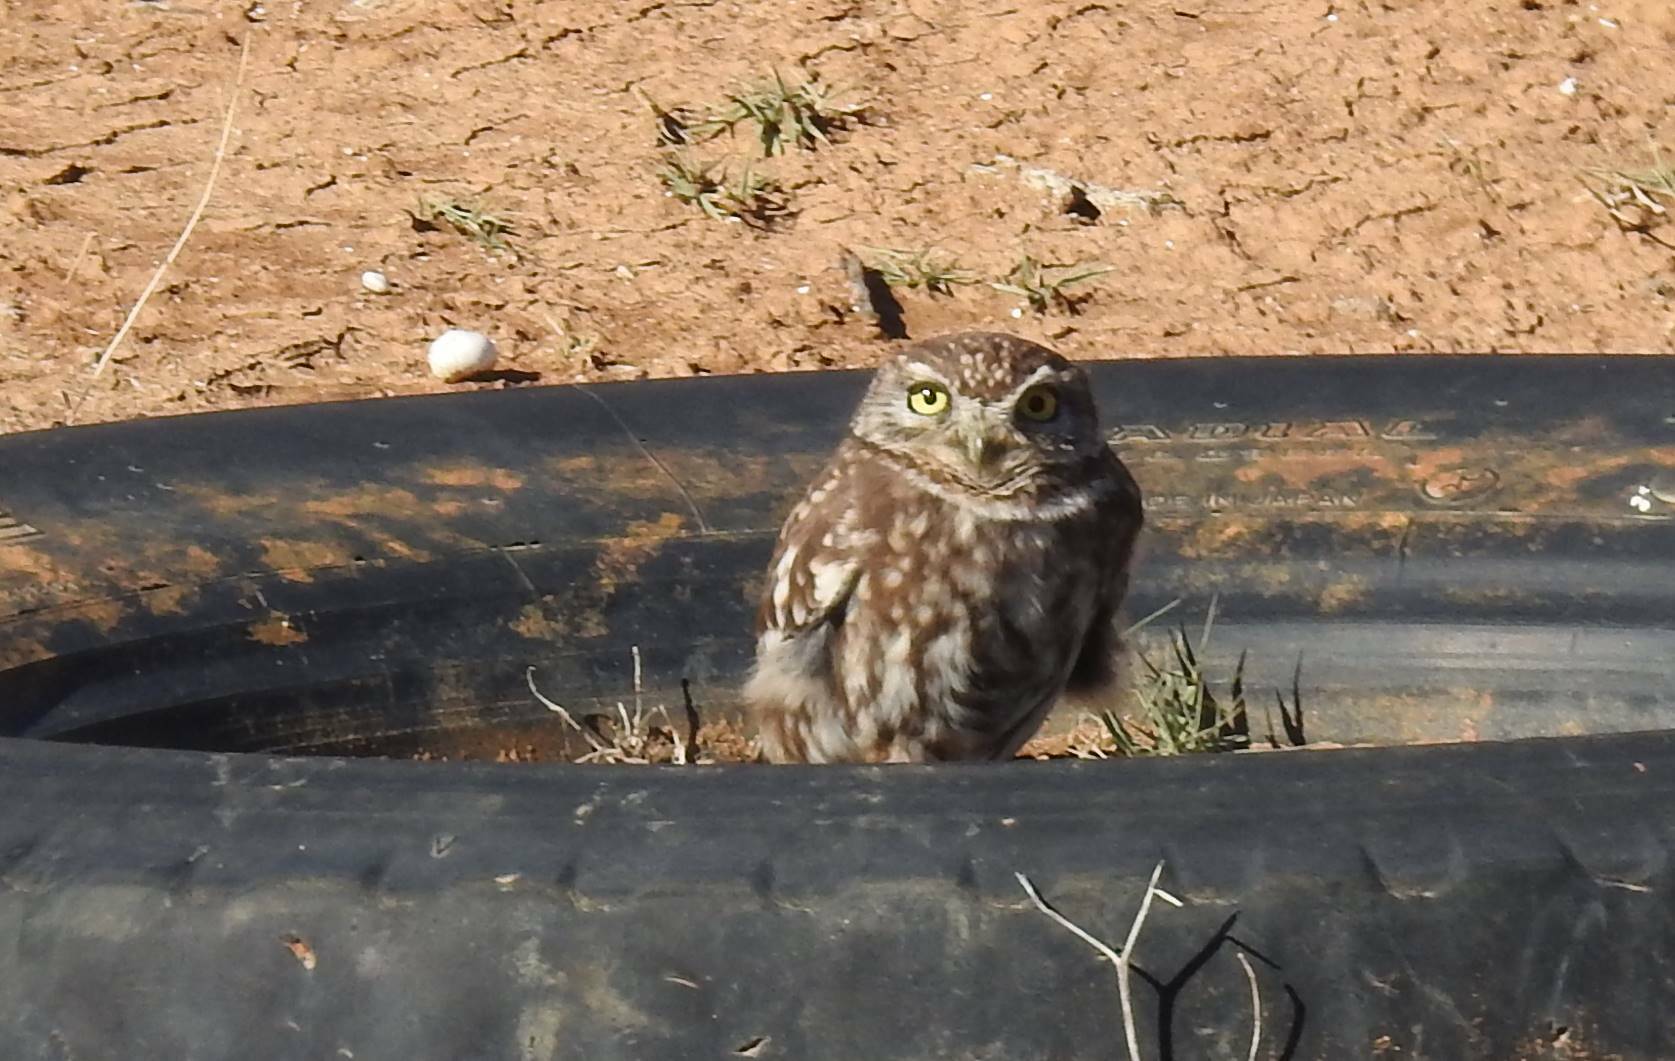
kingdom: Animalia
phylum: Chordata
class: Aves
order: Strigiformes
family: Strigidae
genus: Athene
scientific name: Athene noctua
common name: Little owl
